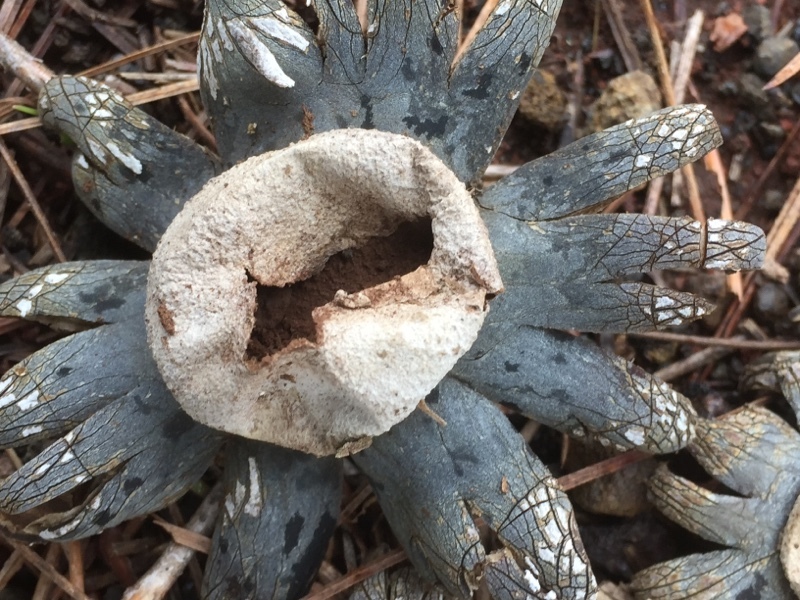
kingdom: Fungi
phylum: Basidiomycota
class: Agaricomycetes
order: Boletales
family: Diplocystidiaceae
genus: Astraeus
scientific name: Astraeus hygrometricus
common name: Barometer earthstar
